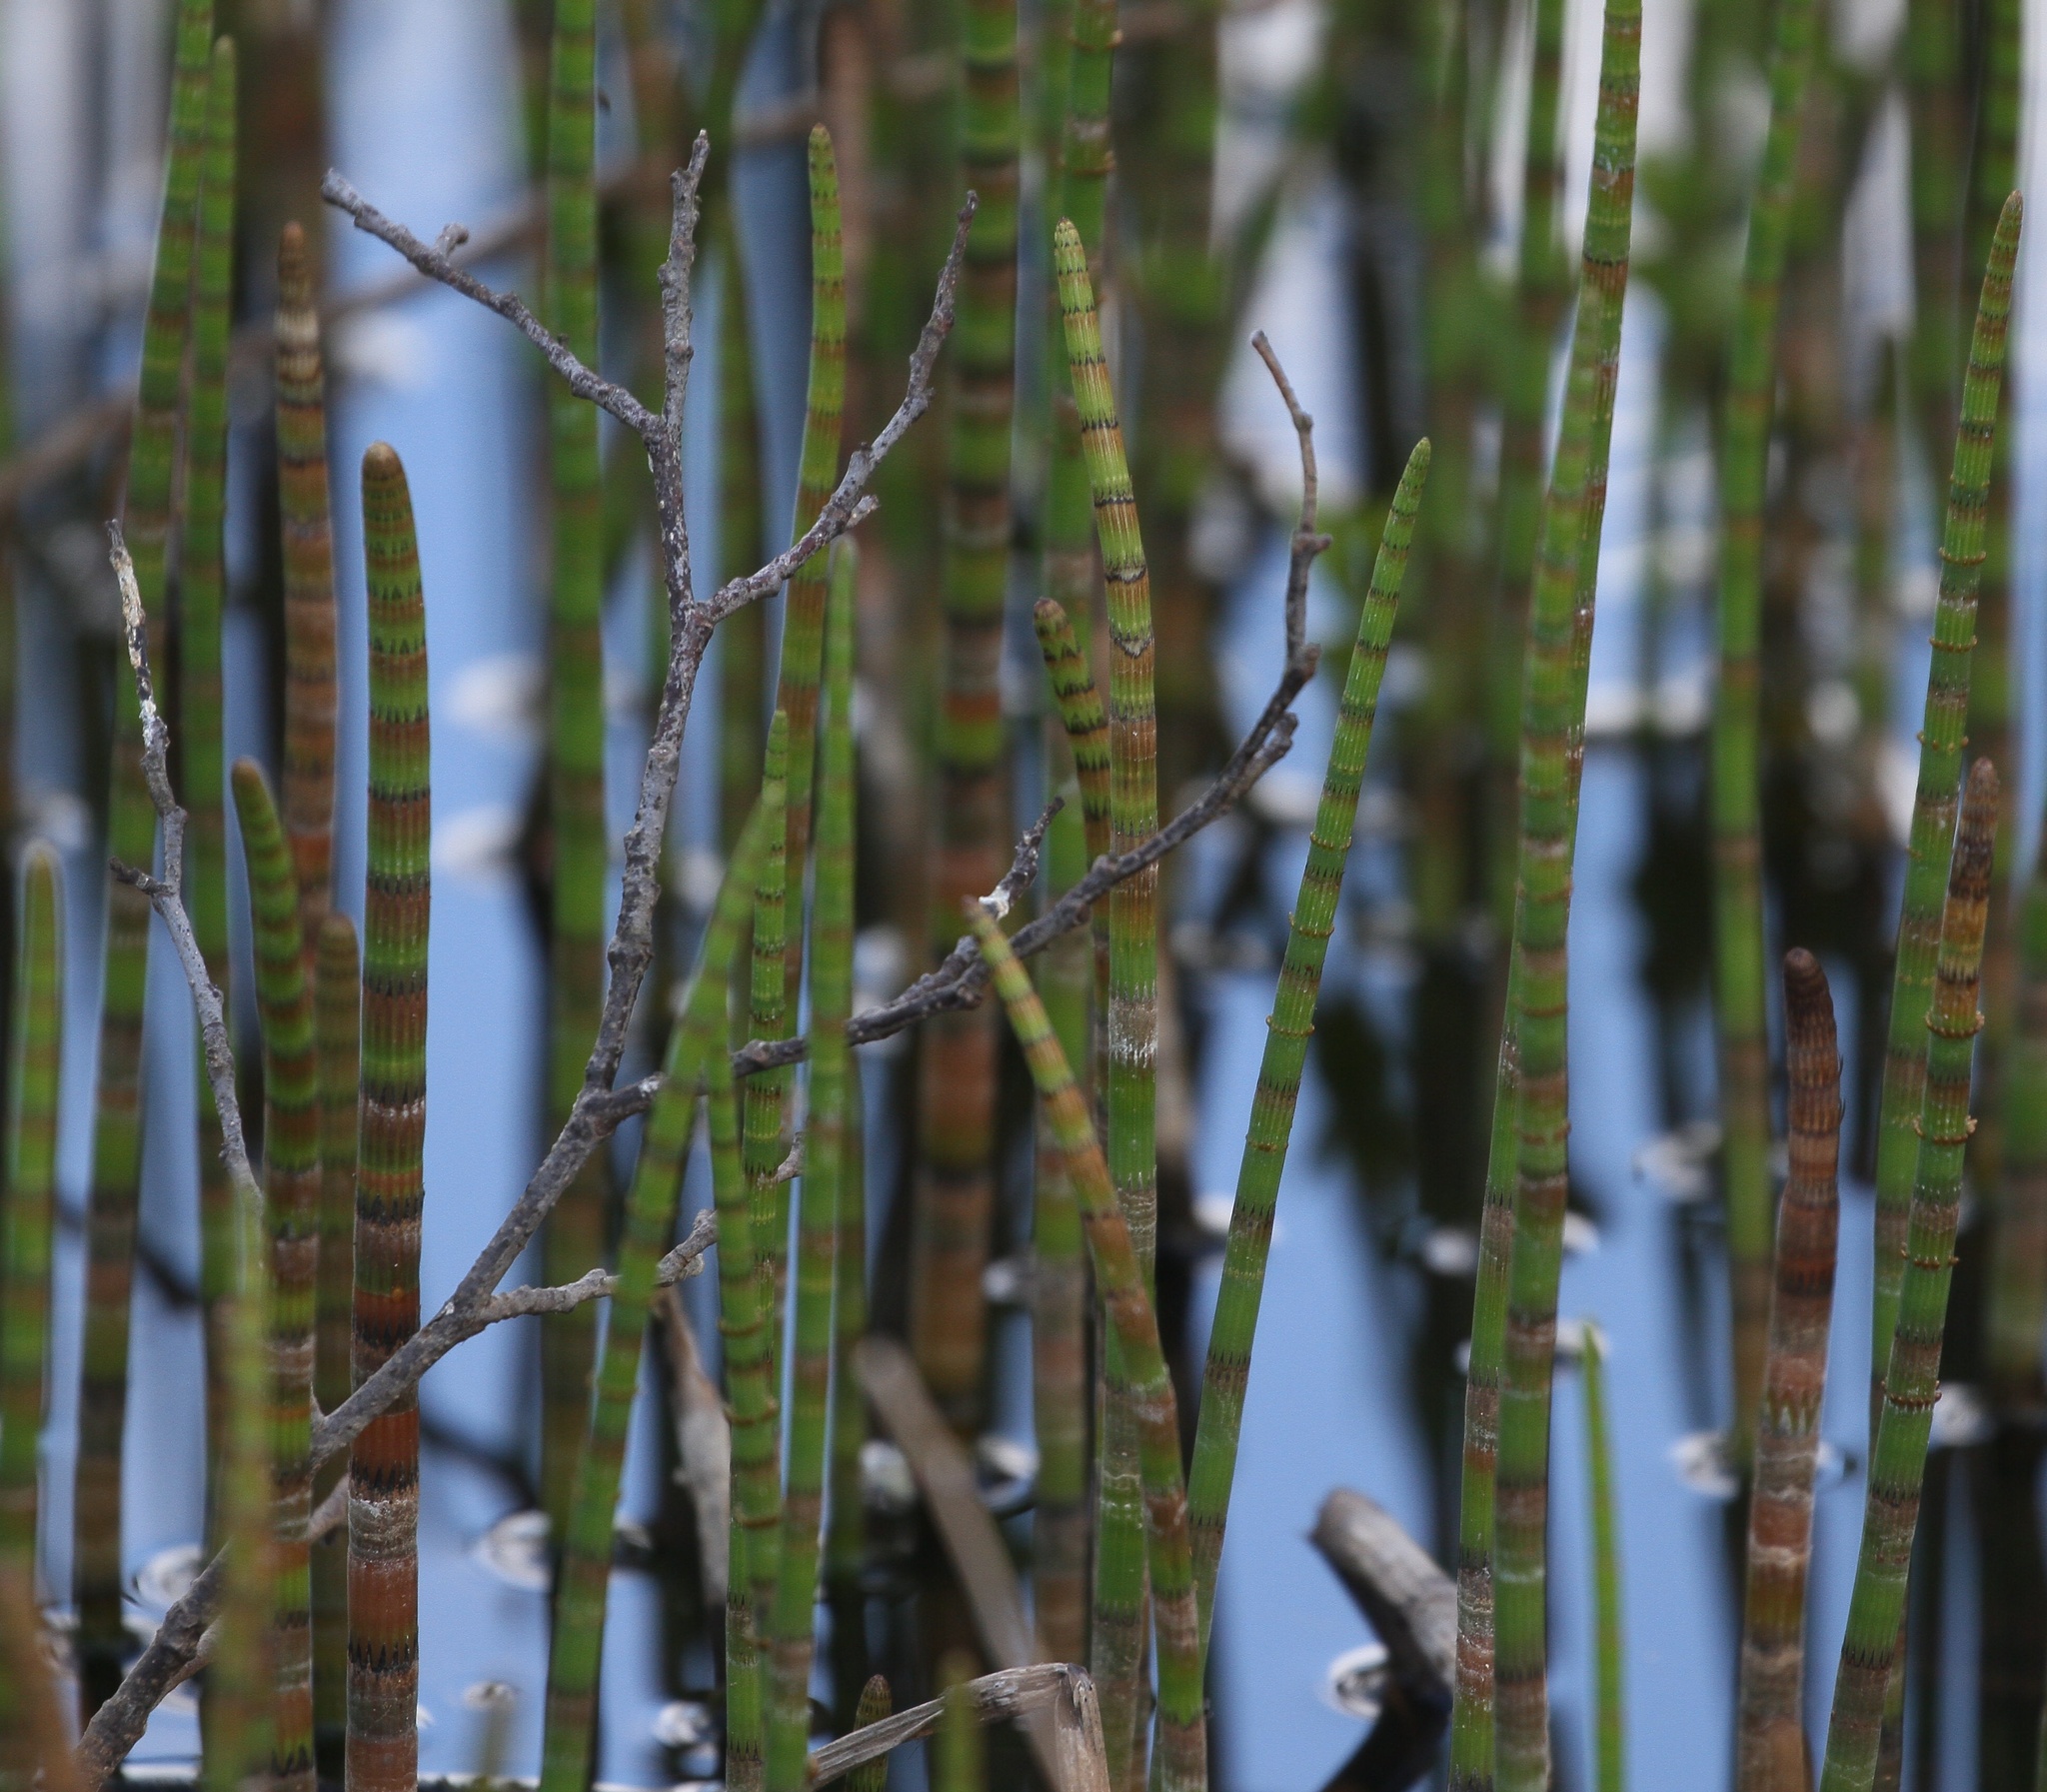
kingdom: Plantae
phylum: Tracheophyta
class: Polypodiopsida
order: Equisetales
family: Equisetaceae
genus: Equisetum
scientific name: Equisetum fluviatile
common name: Water horsetail
